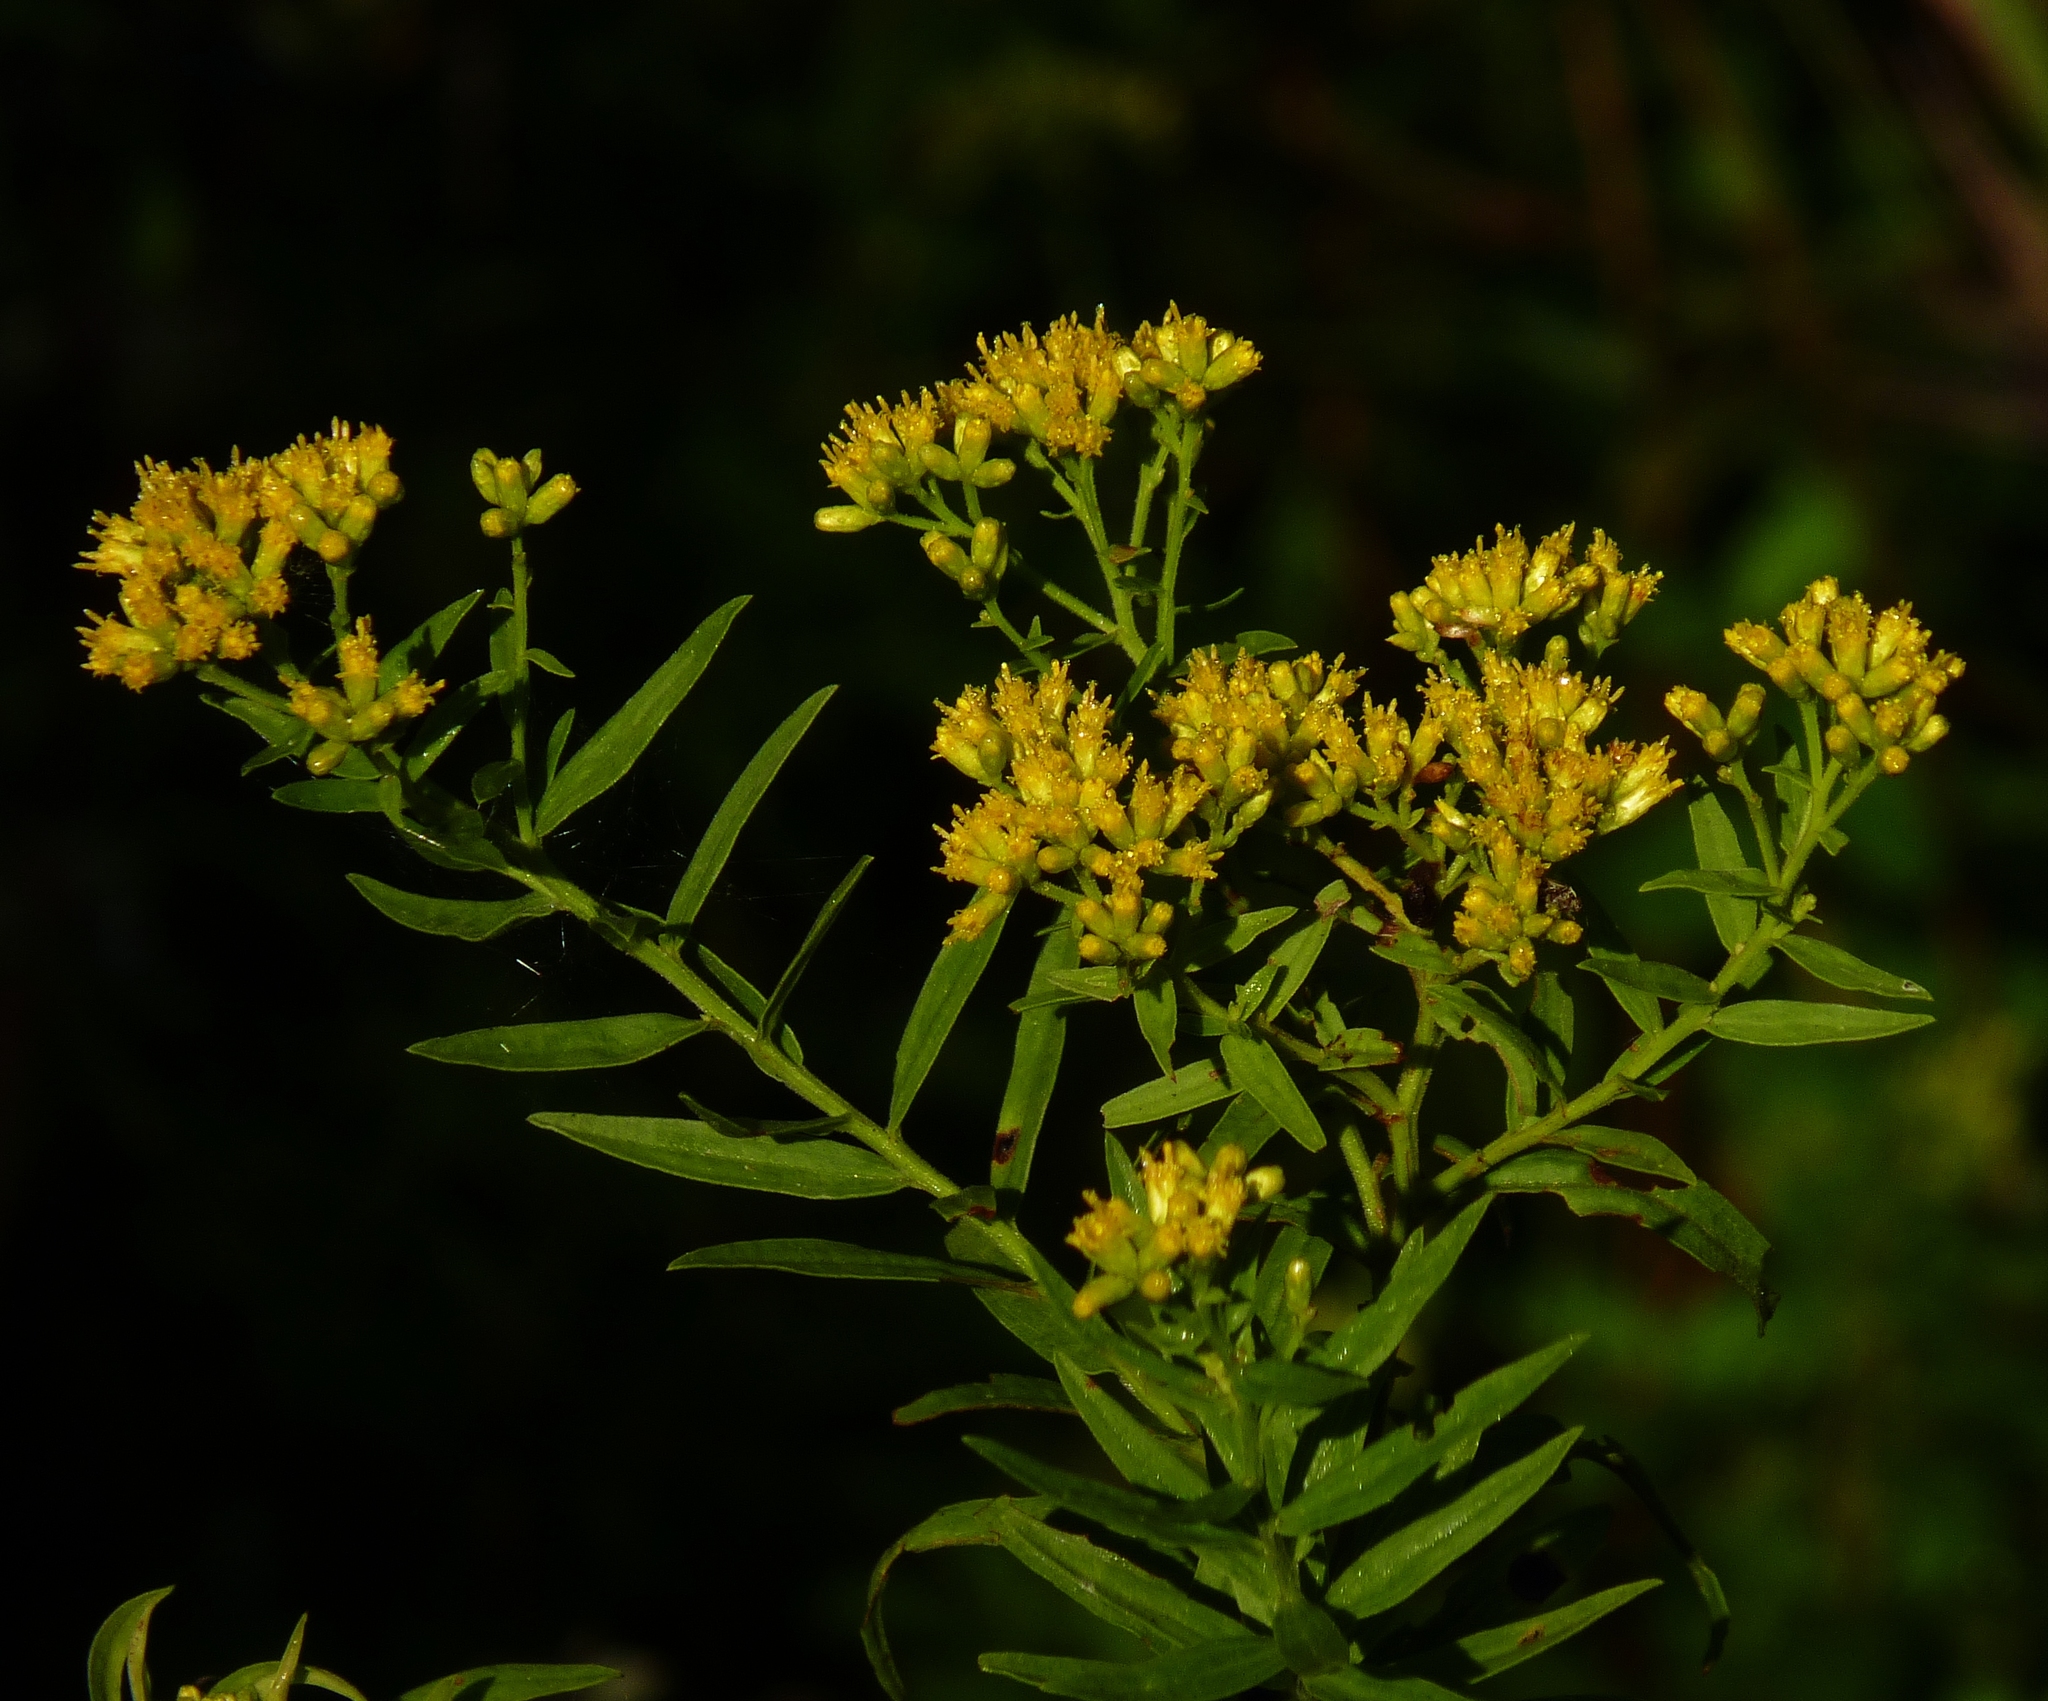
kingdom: Plantae
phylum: Tracheophyta
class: Magnoliopsida
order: Asterales
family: Asteraceae
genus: Euthamia
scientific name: Euthamia graminifolia
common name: Common goldentop
